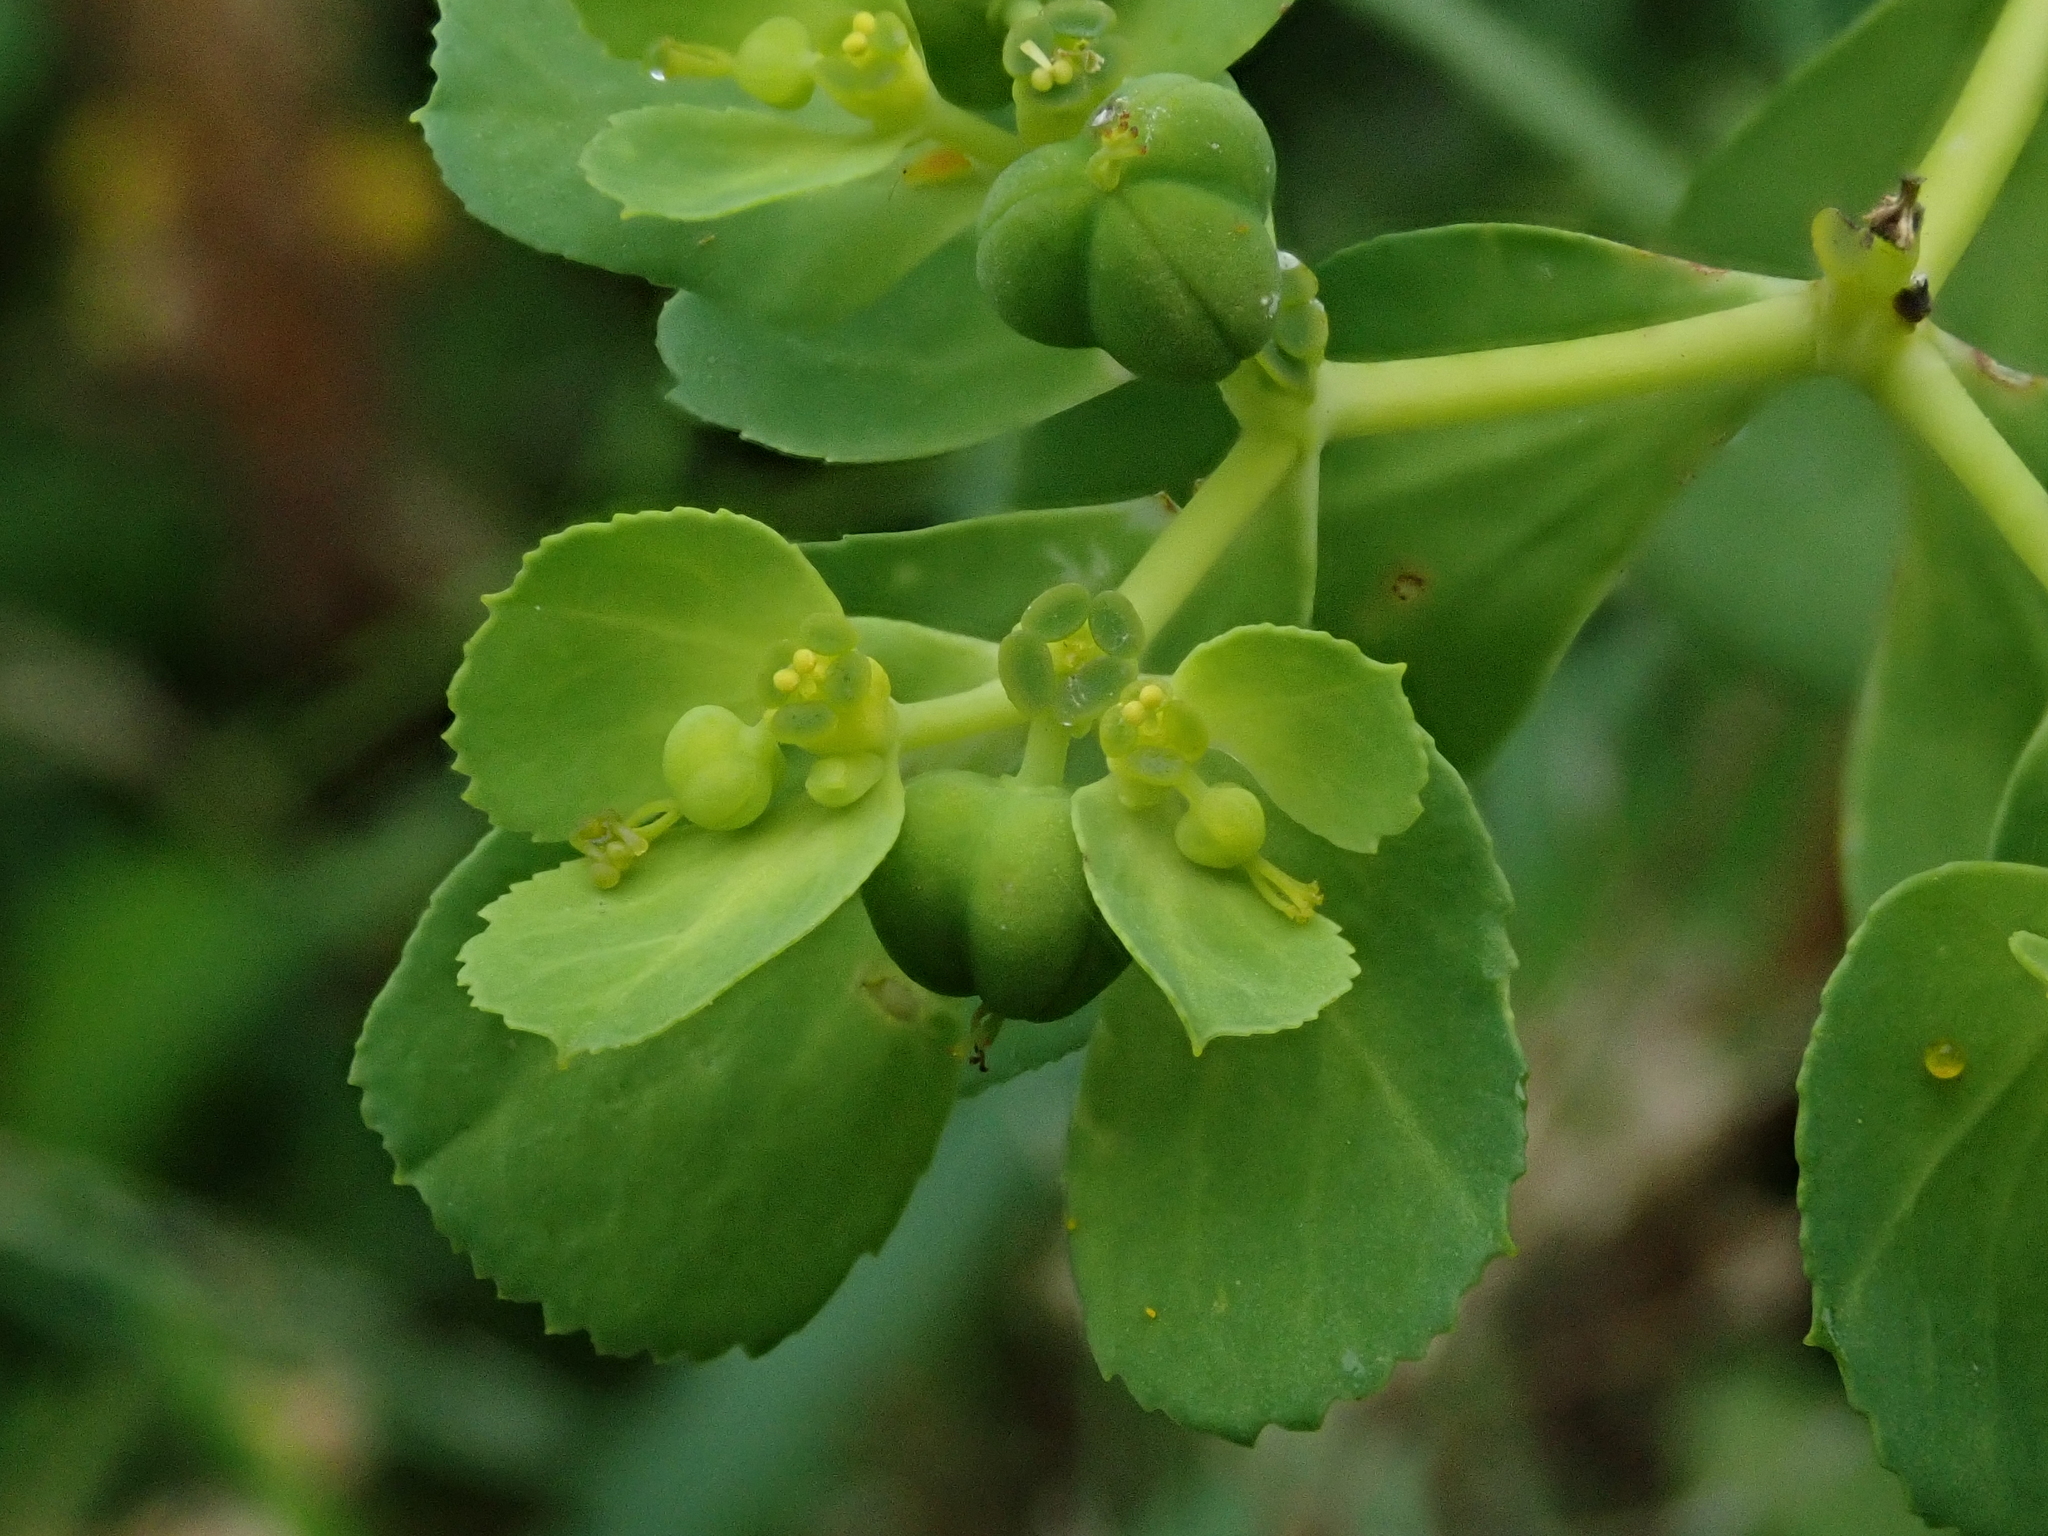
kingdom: Plantae
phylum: Tracheophyta
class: Magnoliopsida
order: Malpighiales
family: Euphorbiaceae
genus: Euphorbia
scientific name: Euphorbia helioscopia
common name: Sun spurge
